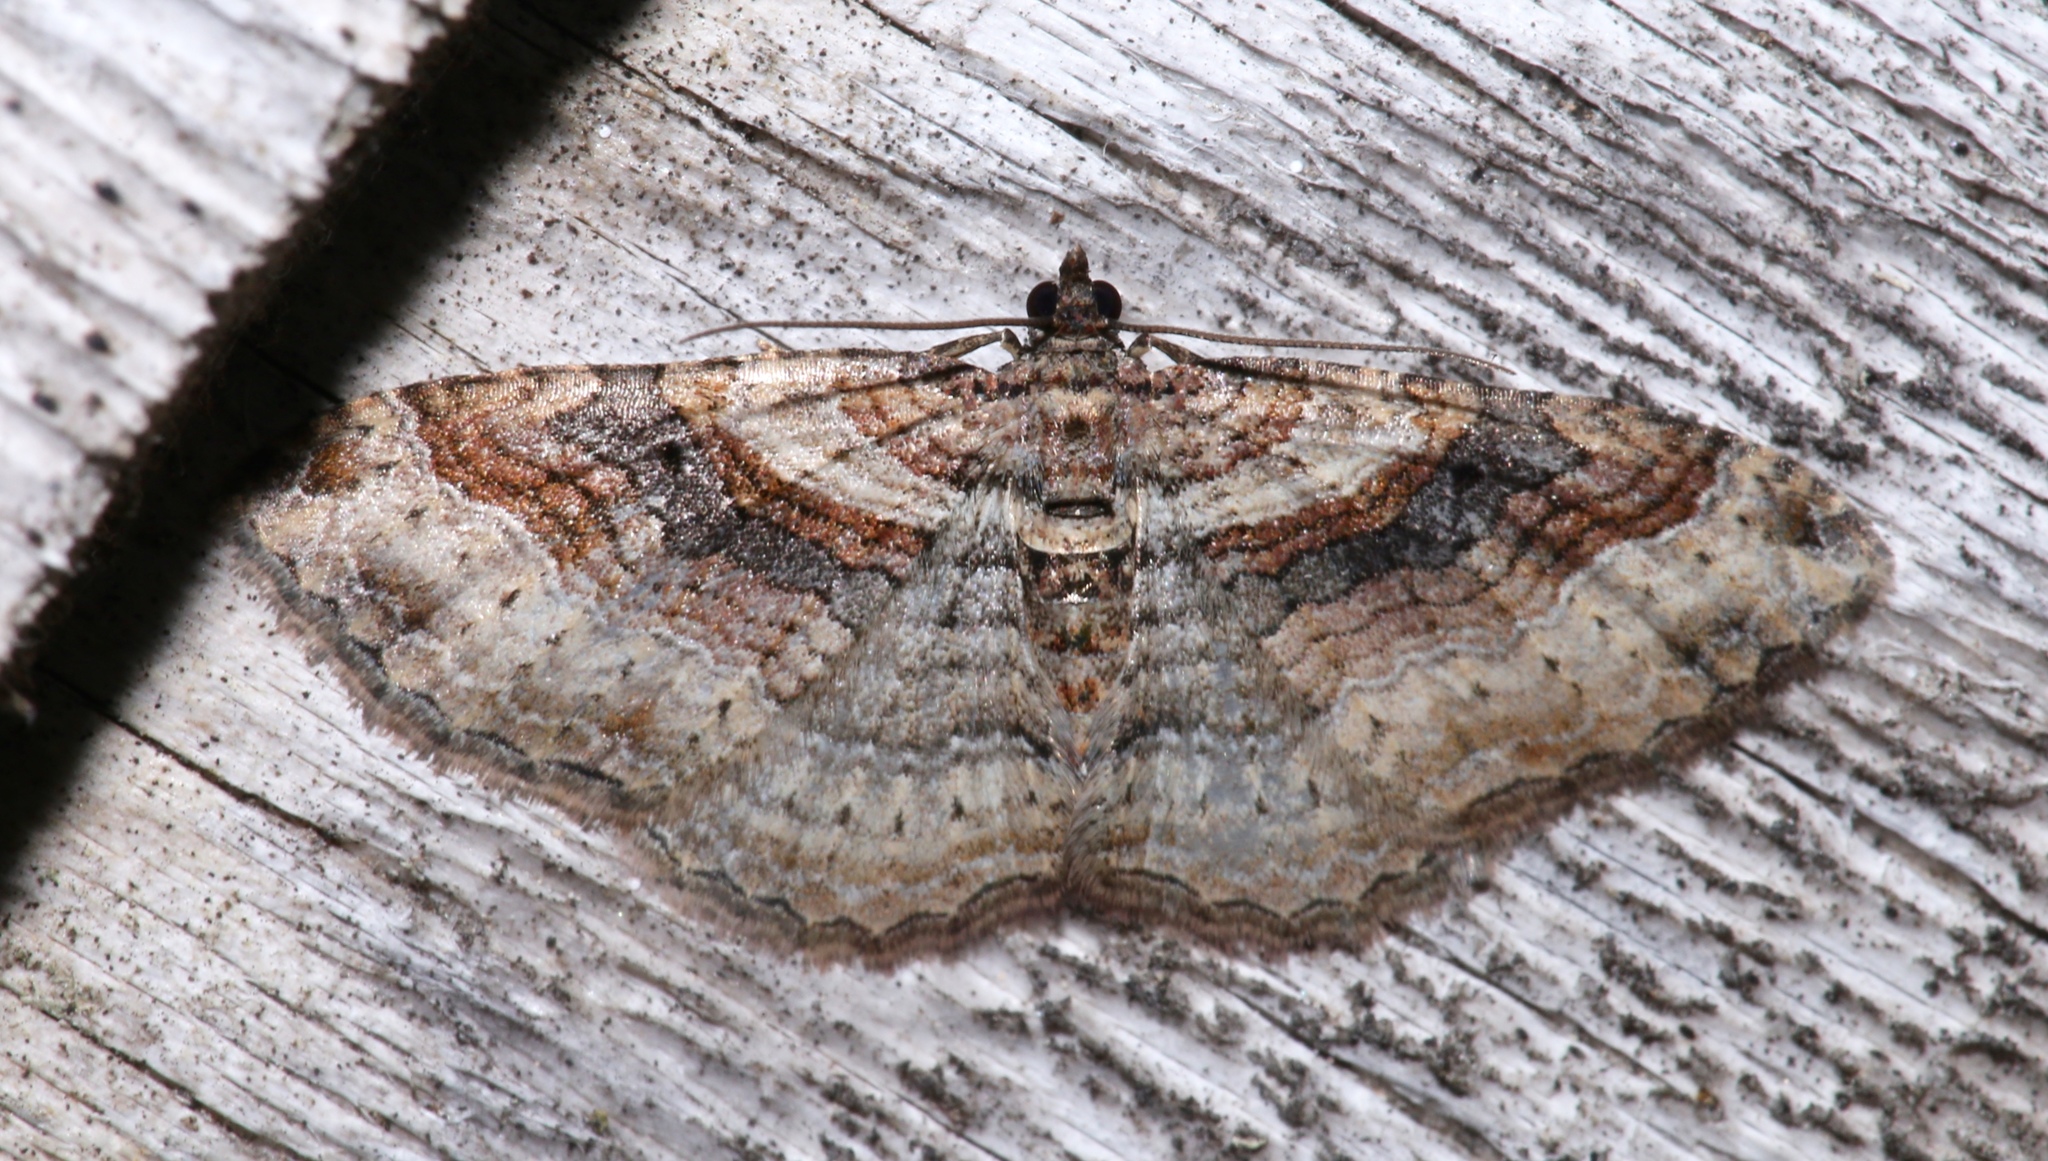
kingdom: Animalia
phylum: Arthropoda
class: Insecta
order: Lepidoptera
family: Geometridae
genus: Costaconvexa
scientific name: Costaconvexa centrostrigaria
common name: Bent-line carpet
